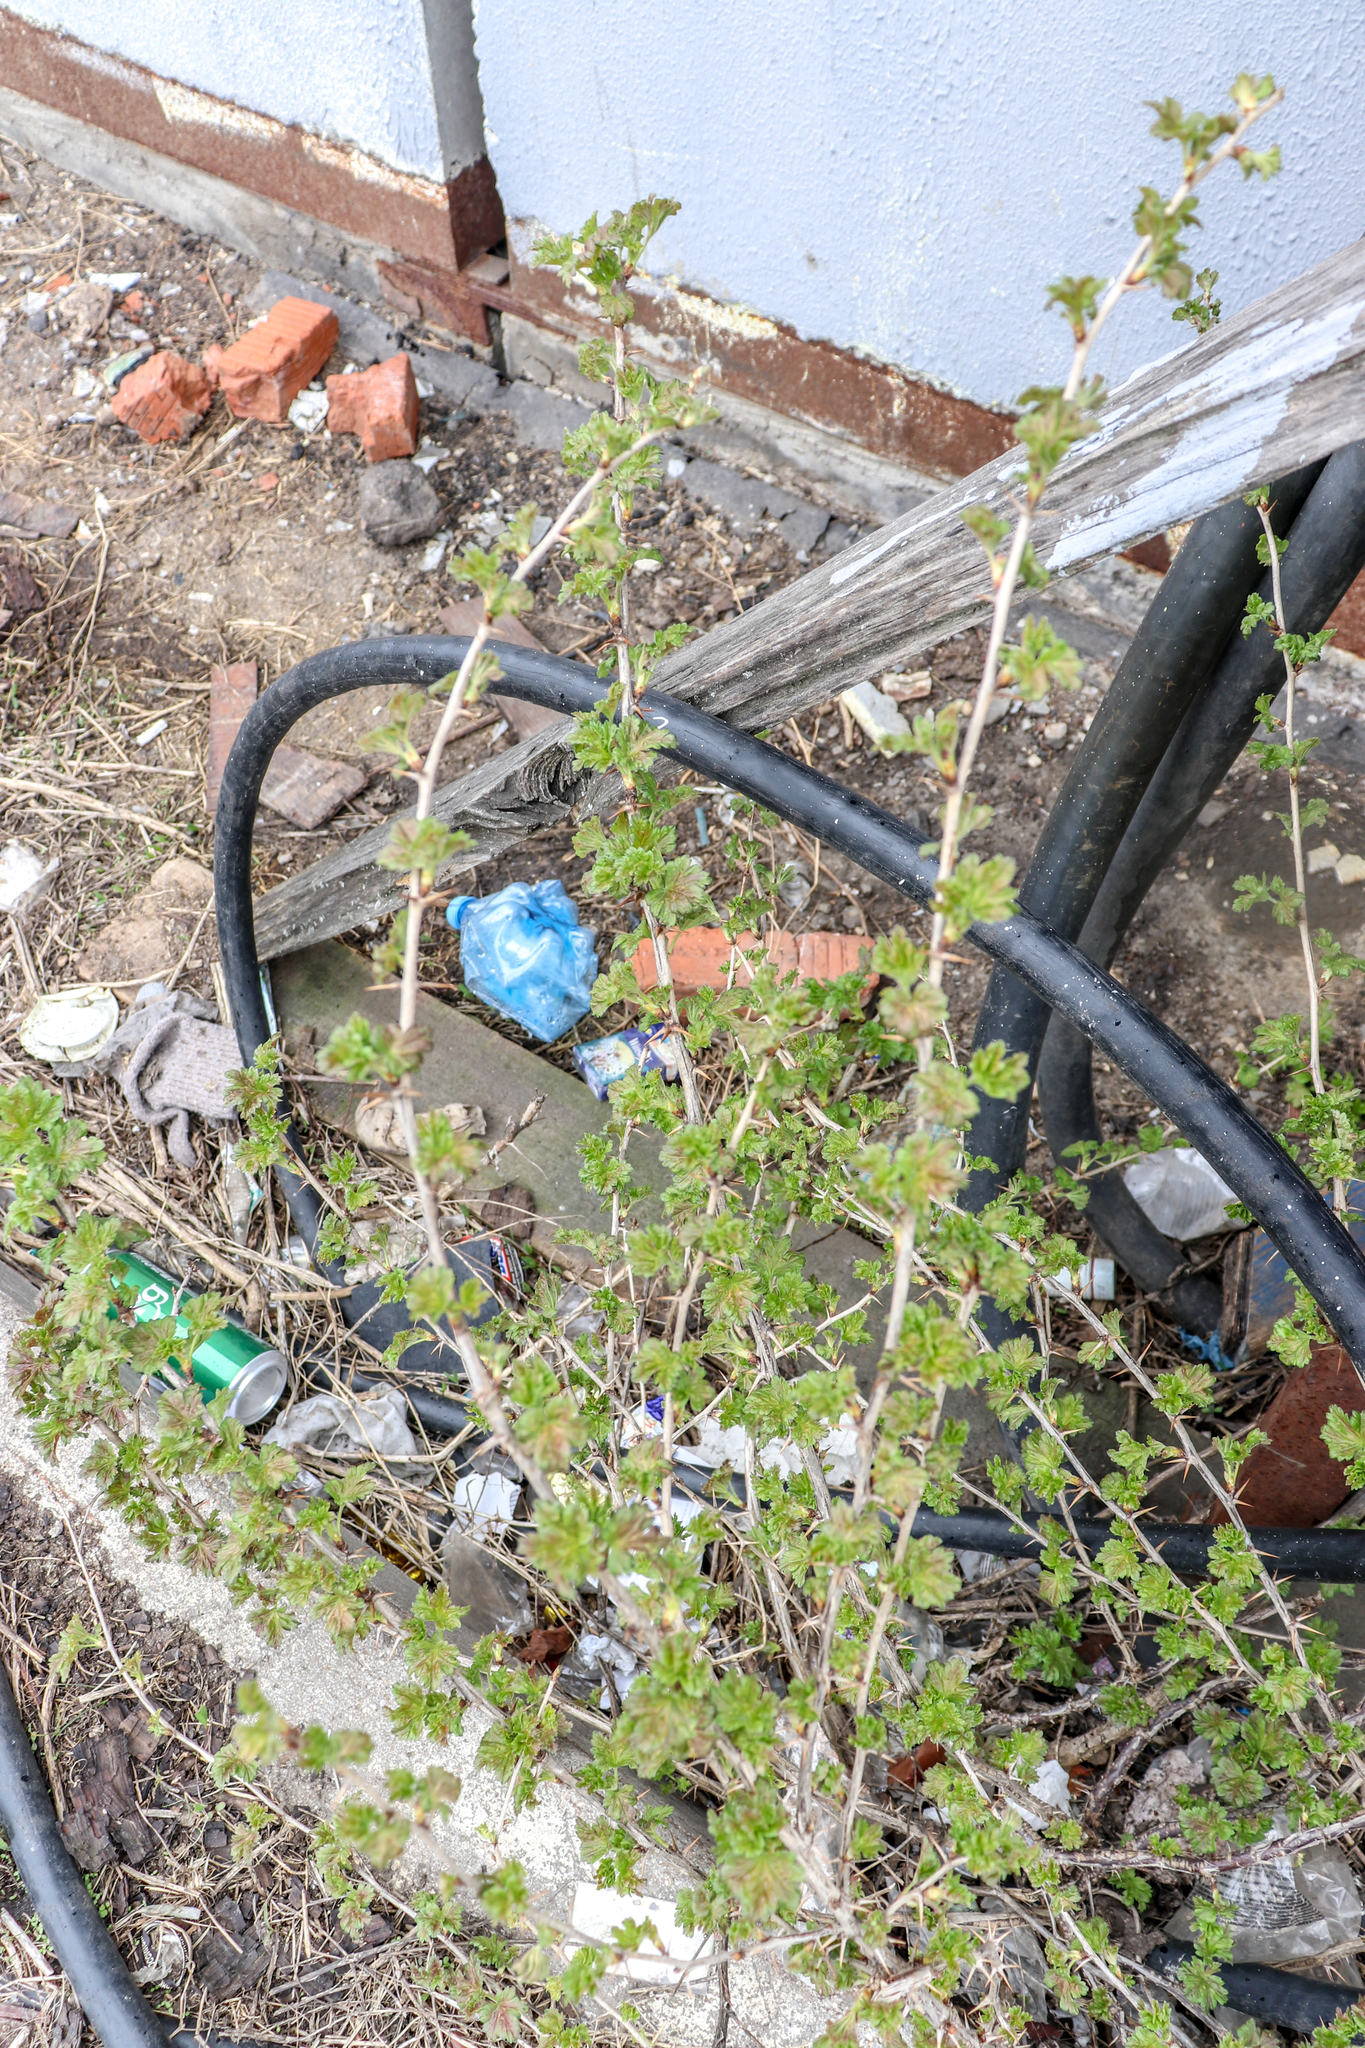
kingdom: Plantae
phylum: Tracheophyta
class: Magnoliopsida
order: Saxifragales
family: Grossulariaceae
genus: Ribes
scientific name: Ribes uva-crispa
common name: Gooseberry
